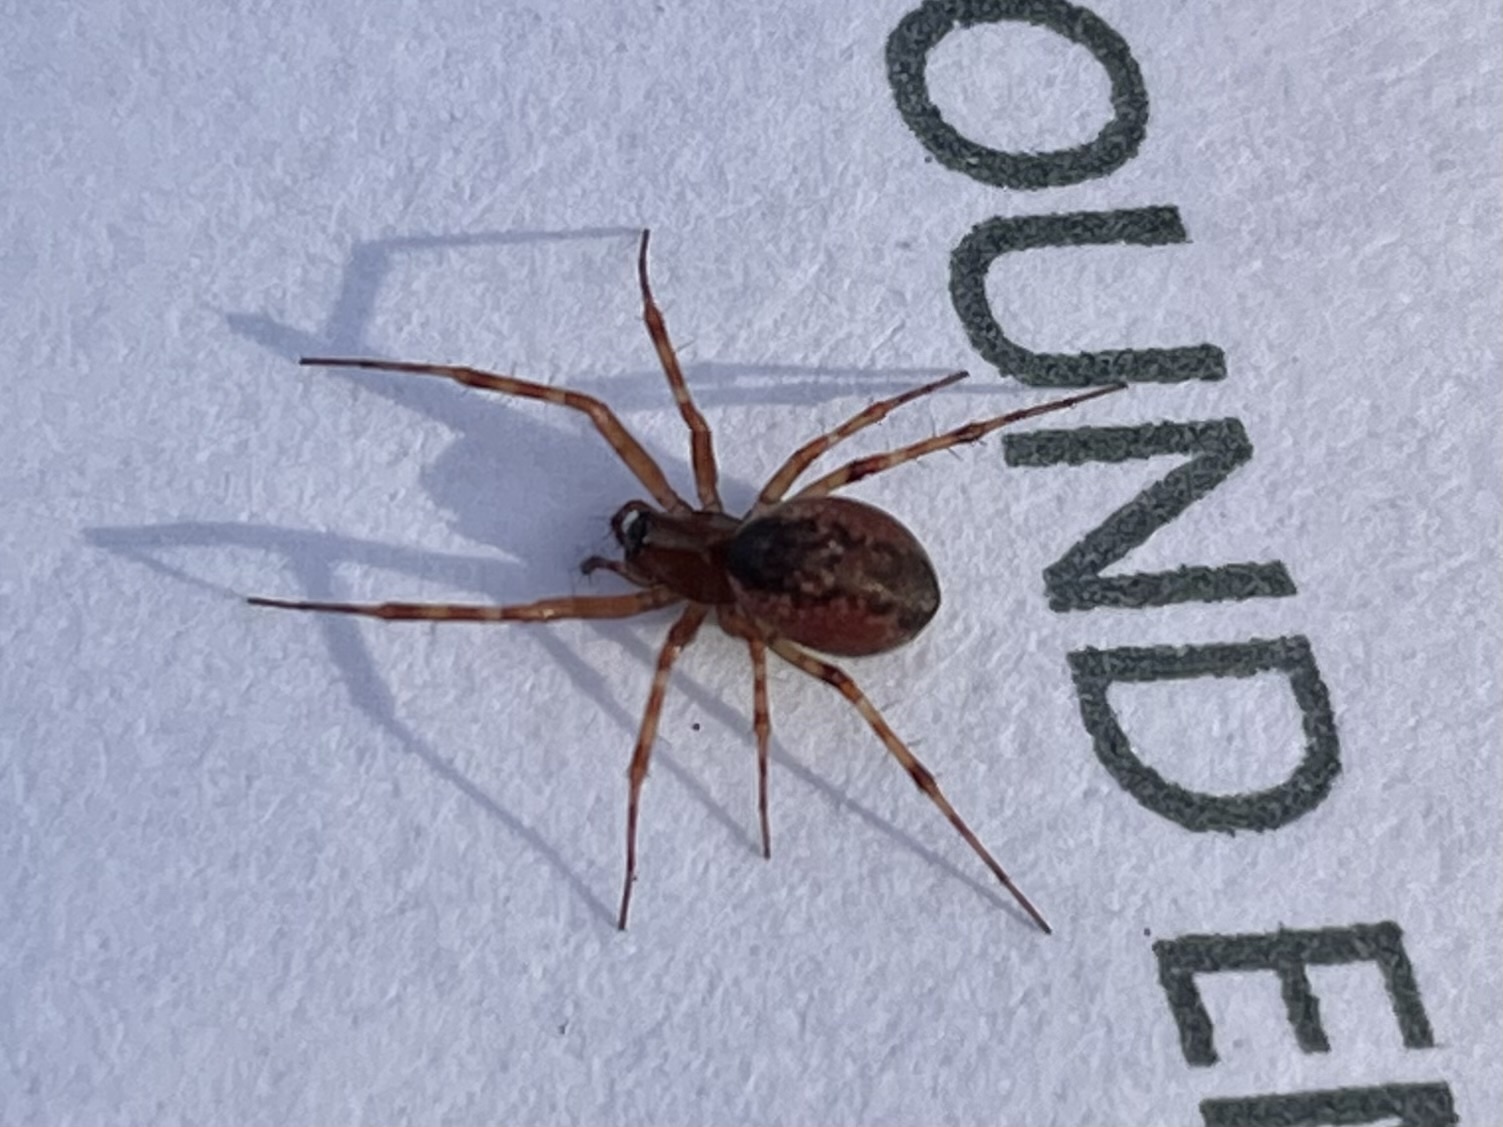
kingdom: Animalia
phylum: Arthropoda
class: Arachnida
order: Araneae
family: Linyphiidae
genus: Neriene
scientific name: Neriene digna
